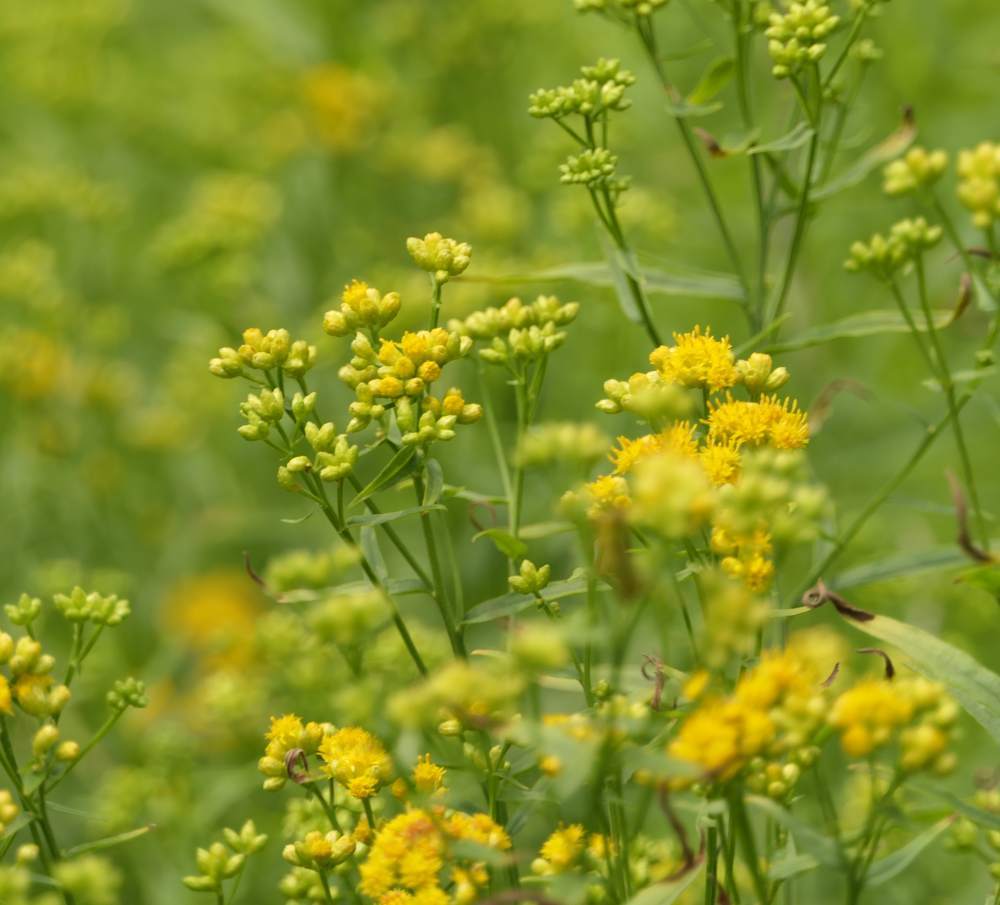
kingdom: Plantae
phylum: Tracheophyta
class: Magnoliopsida
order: Asterales
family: Asteraceae
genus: Euthamia
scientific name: Euthamia graminifolia
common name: Common goldentop
